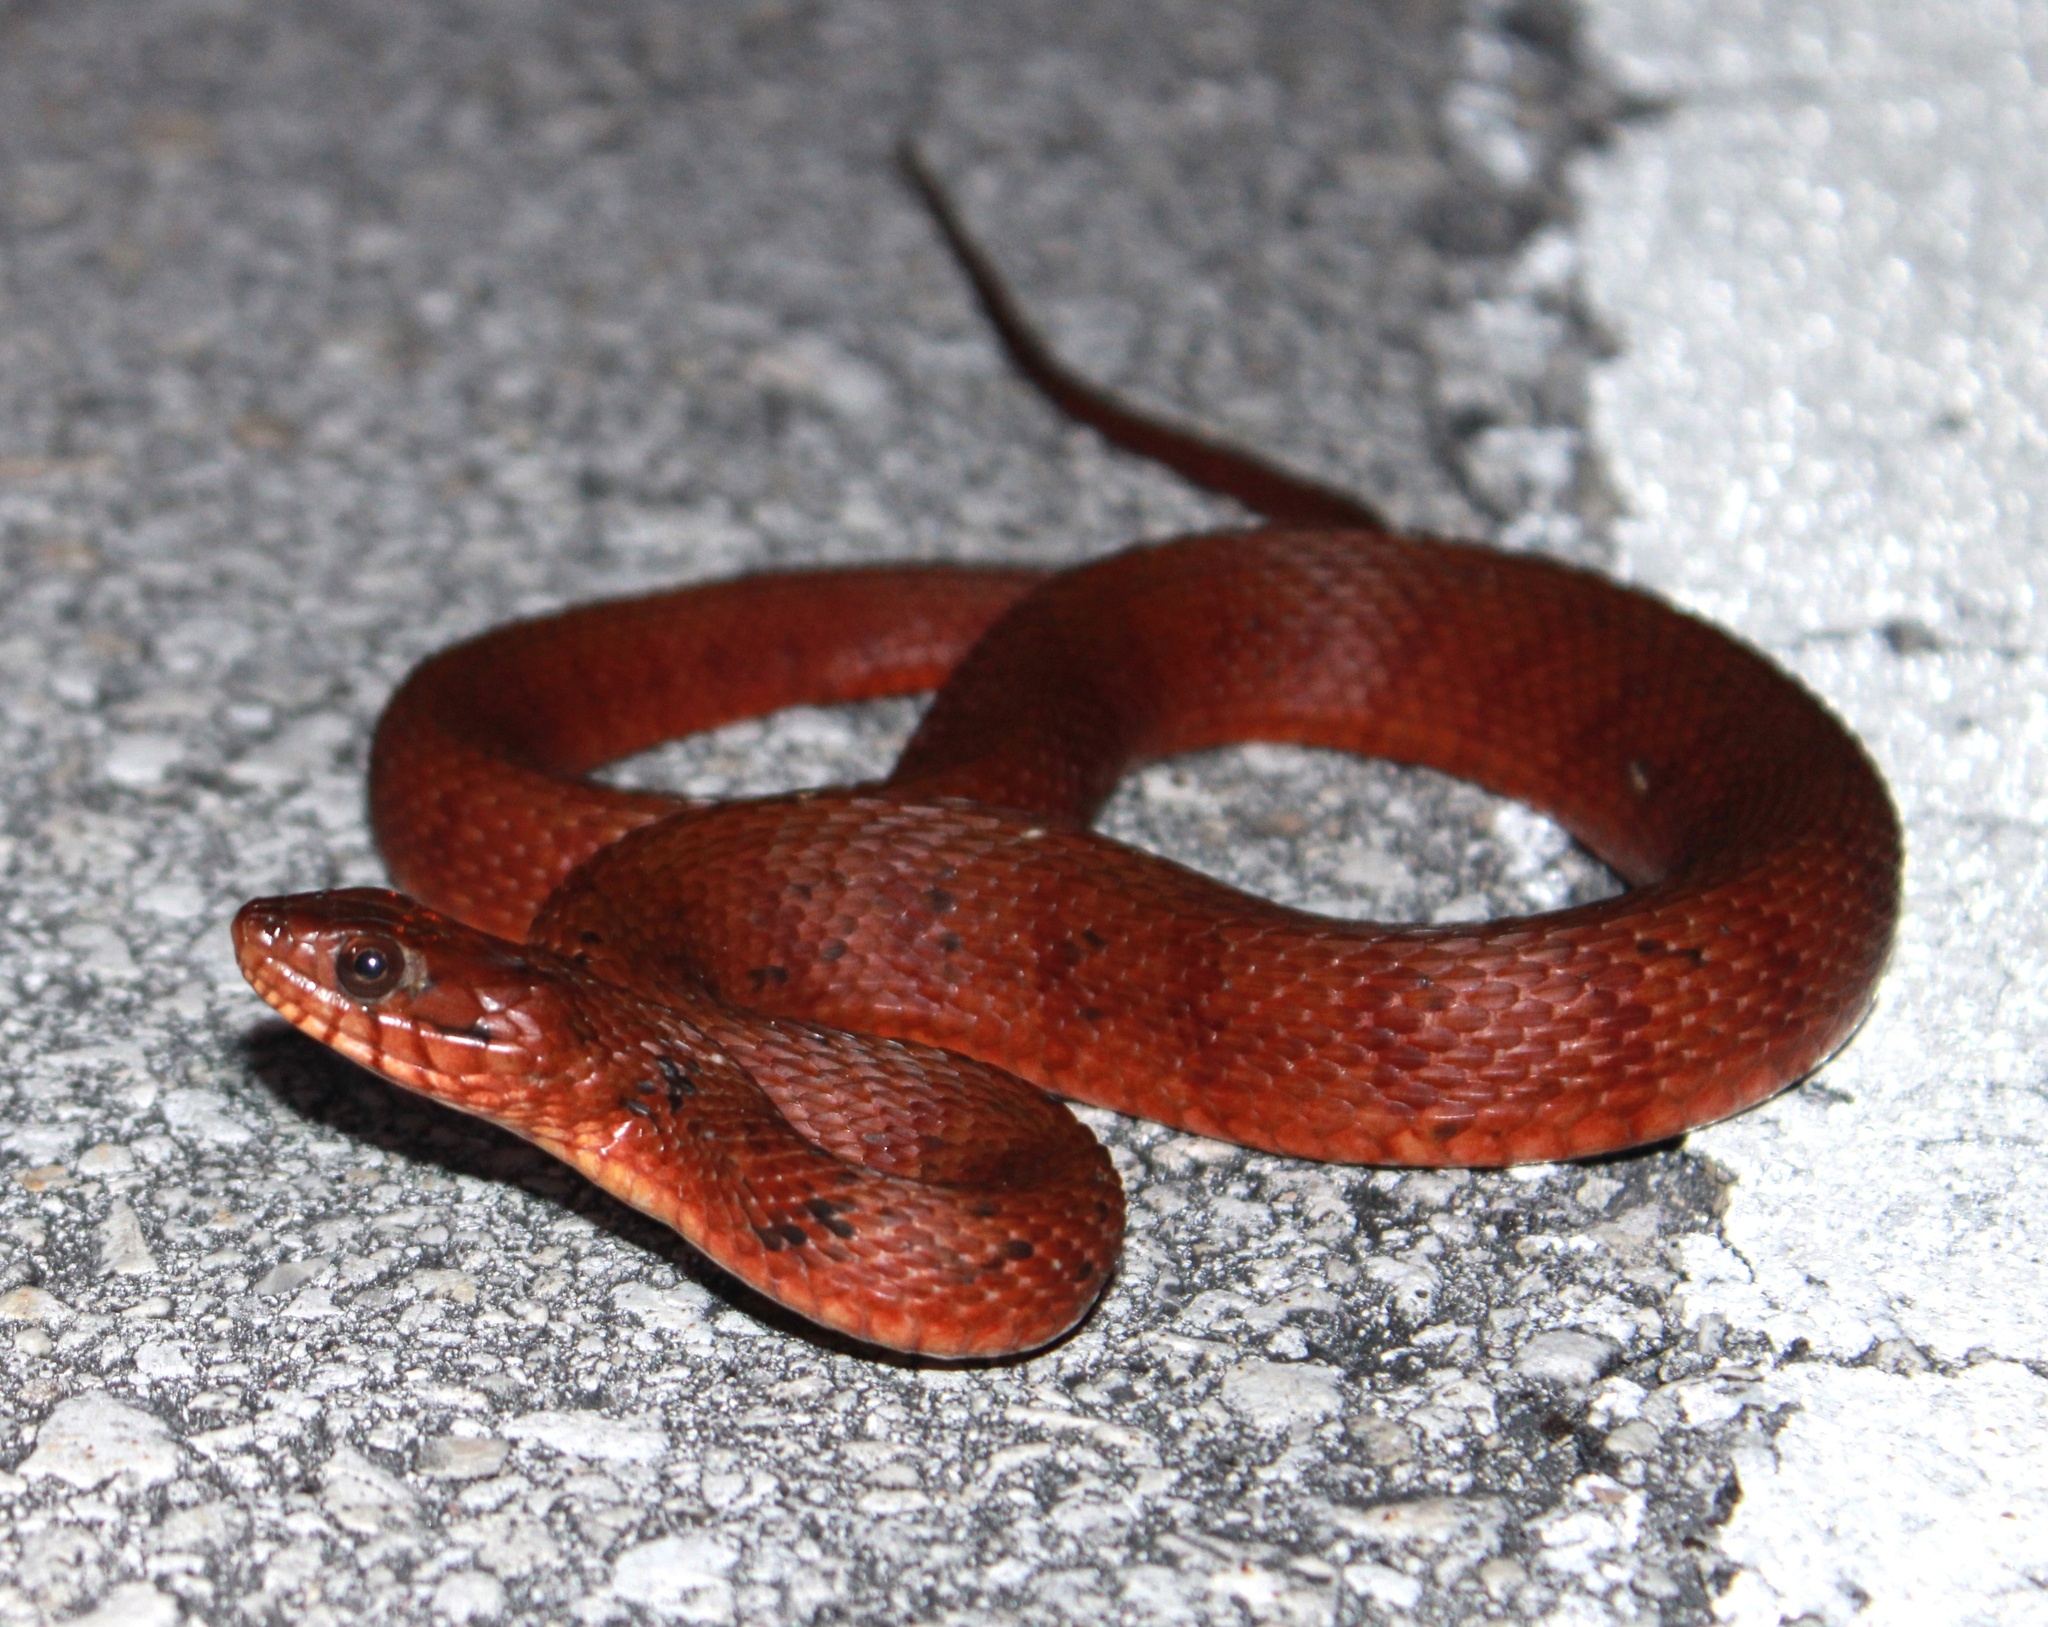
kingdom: Animalia
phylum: Chordata
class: Squamata
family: Colubridae
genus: Nerodia
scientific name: Nerodia clarkii
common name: Atlantic saltmarsh snake
